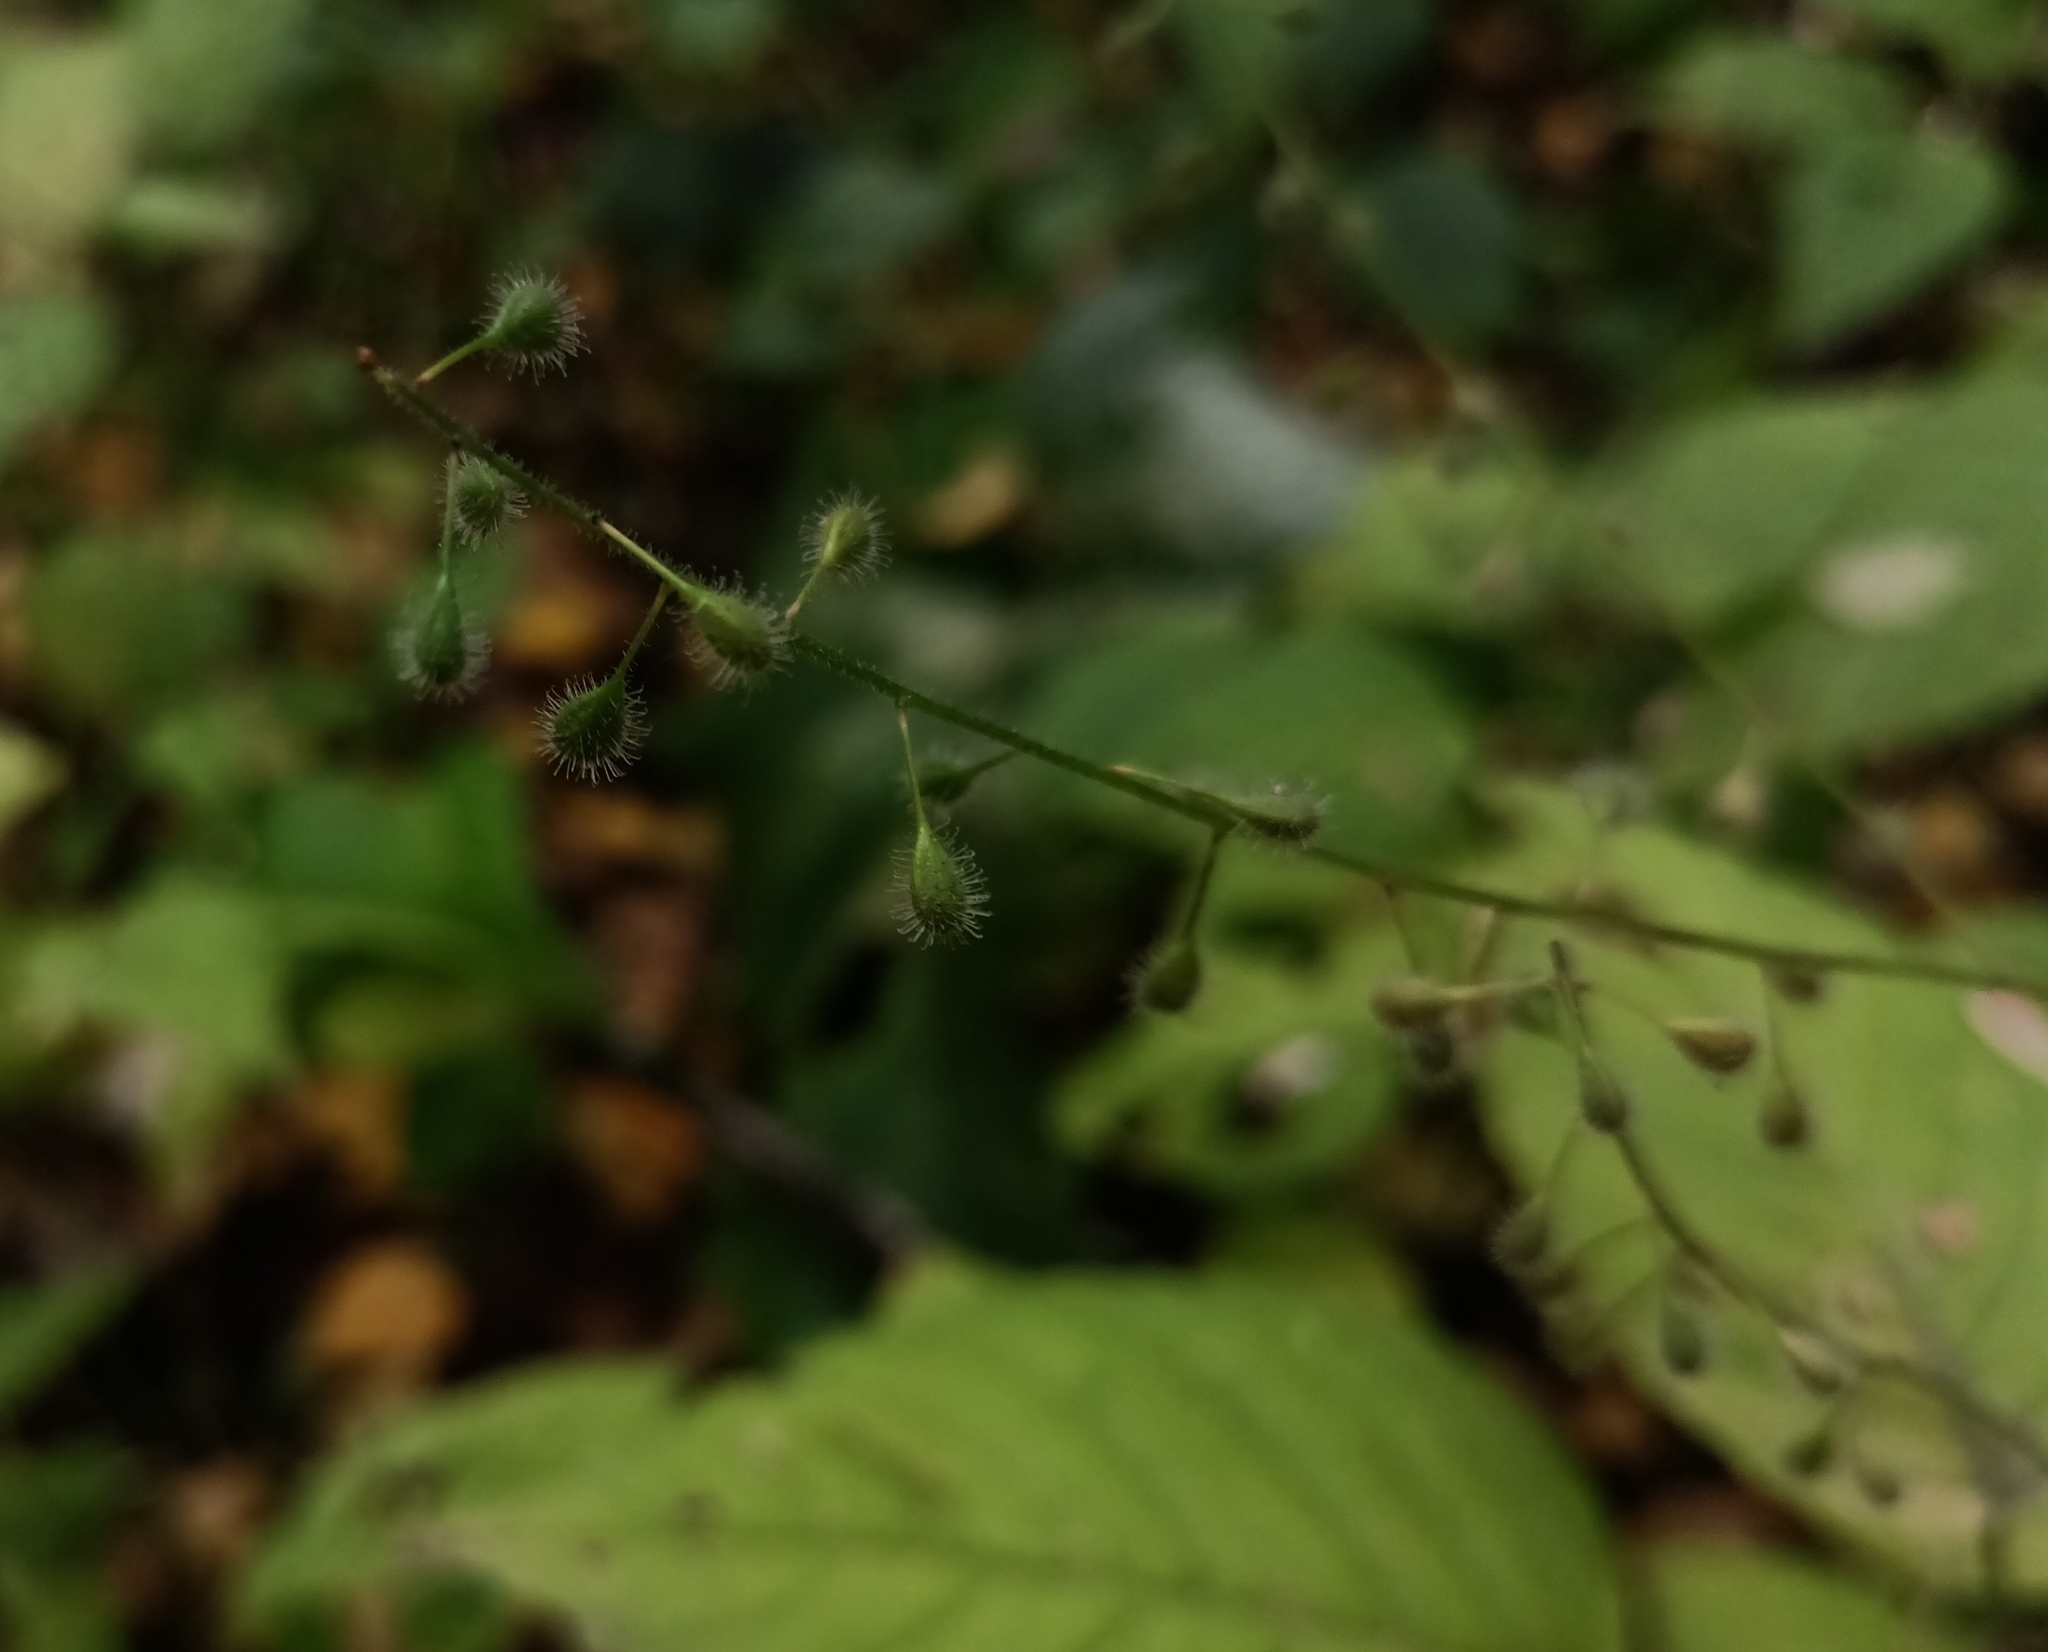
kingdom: Plantae
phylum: Tracheophyta
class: Magnoliopsida
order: Myrtales
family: Onagraceae
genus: Circaea
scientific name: Circaea lutetiana
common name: Enchanter's-nightshade
